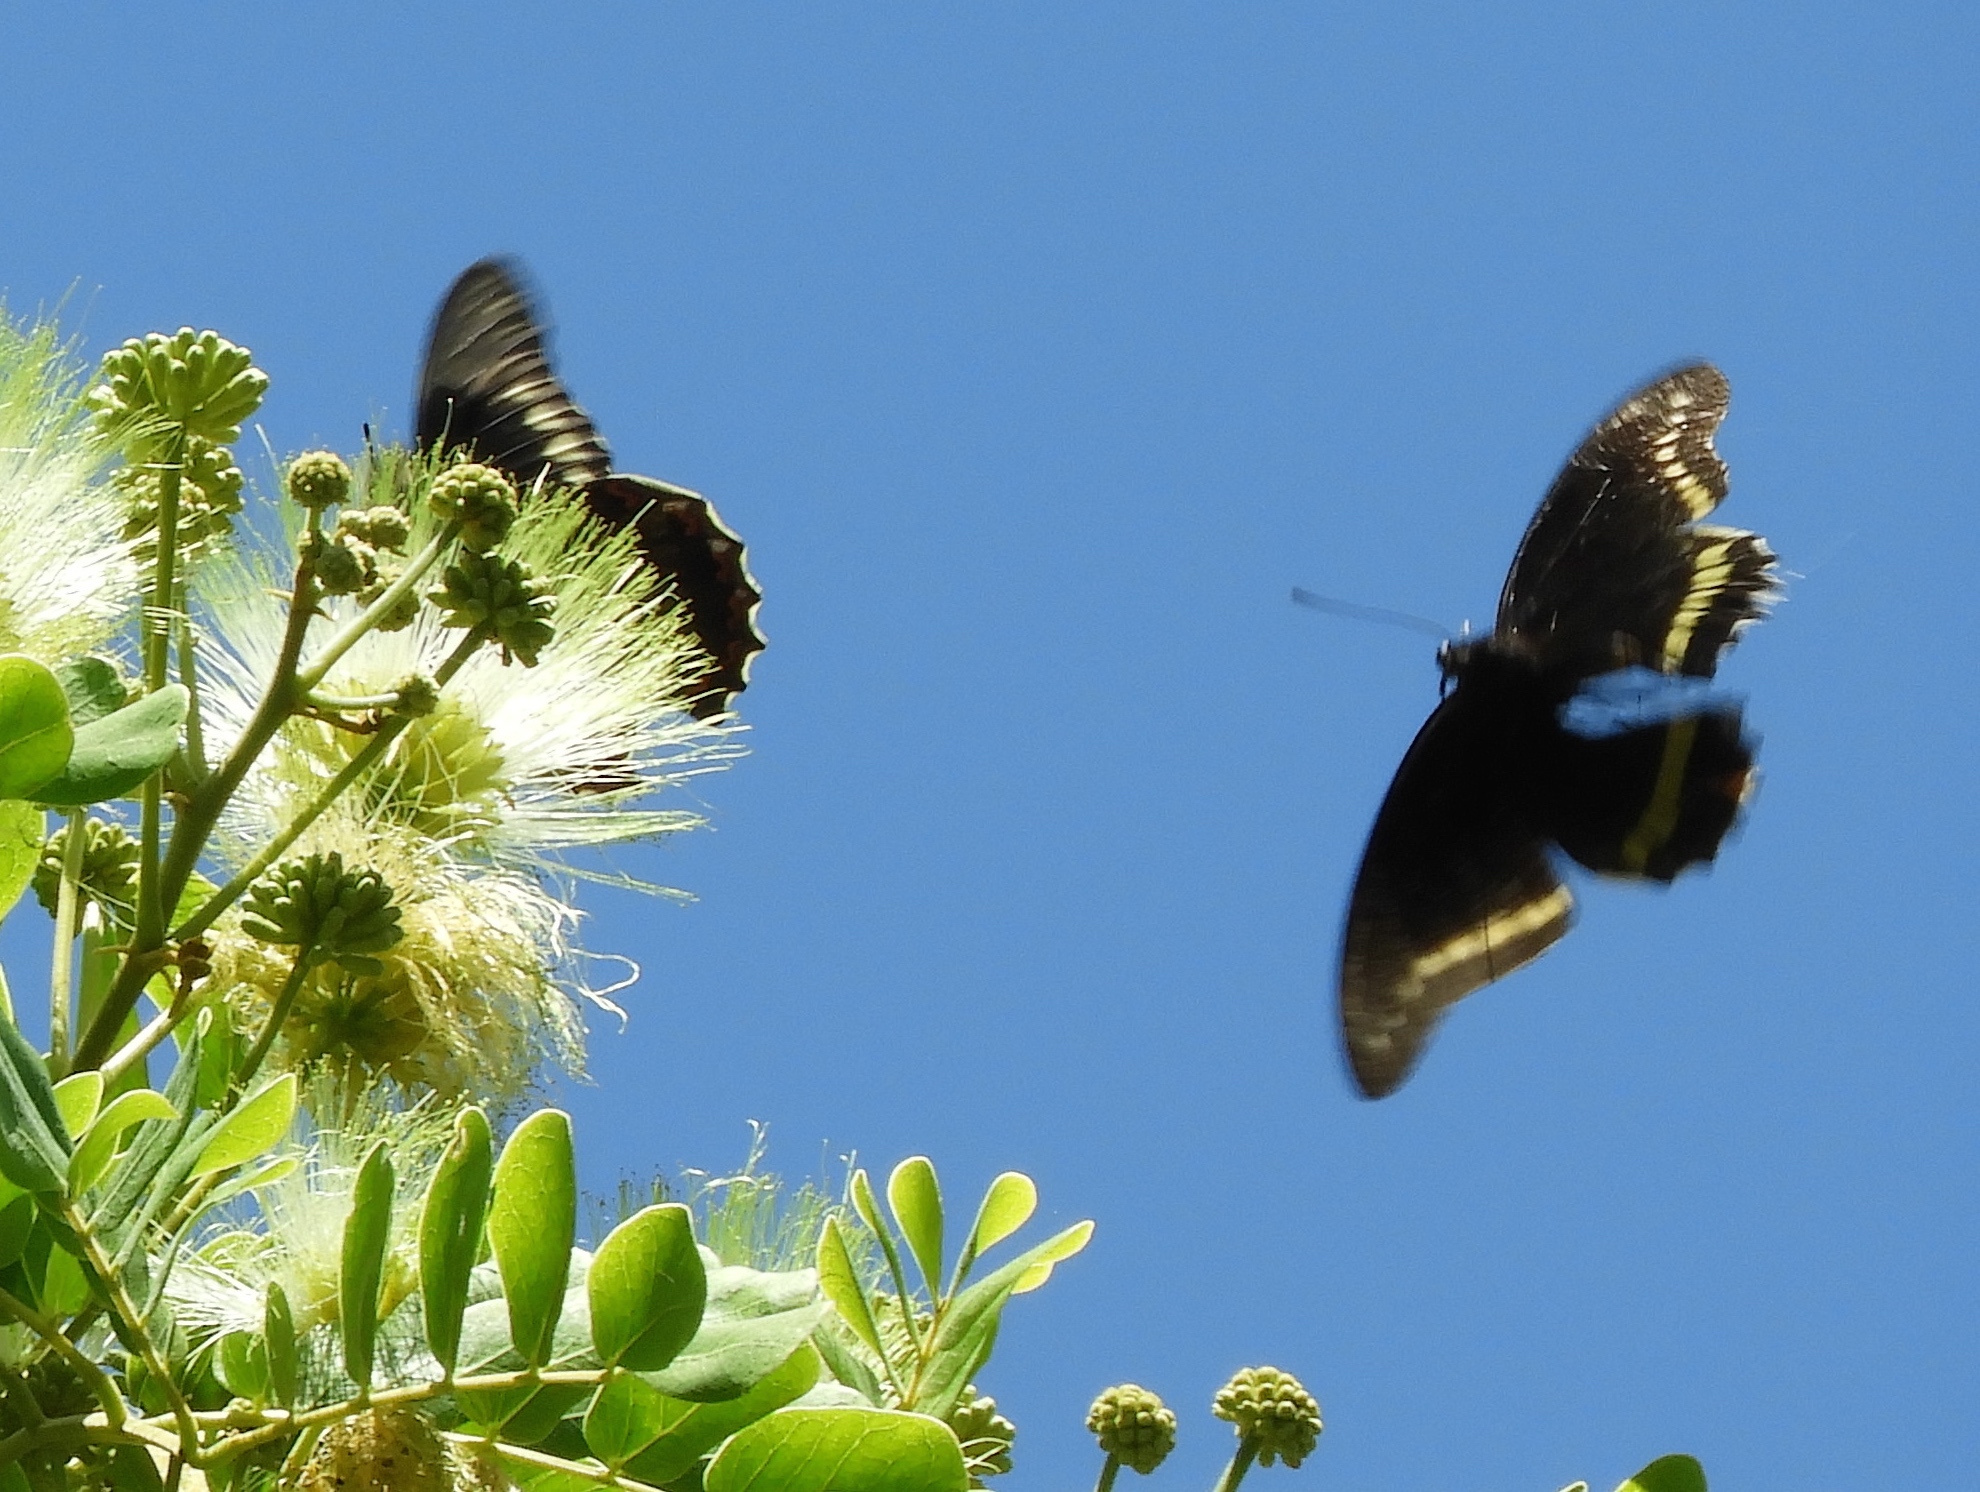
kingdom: Animalia
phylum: Arthropoda
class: Insecta
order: Lepidoptera
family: Papilionidae
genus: Battus
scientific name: Battus polydamas
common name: Polydamas swallowtail
